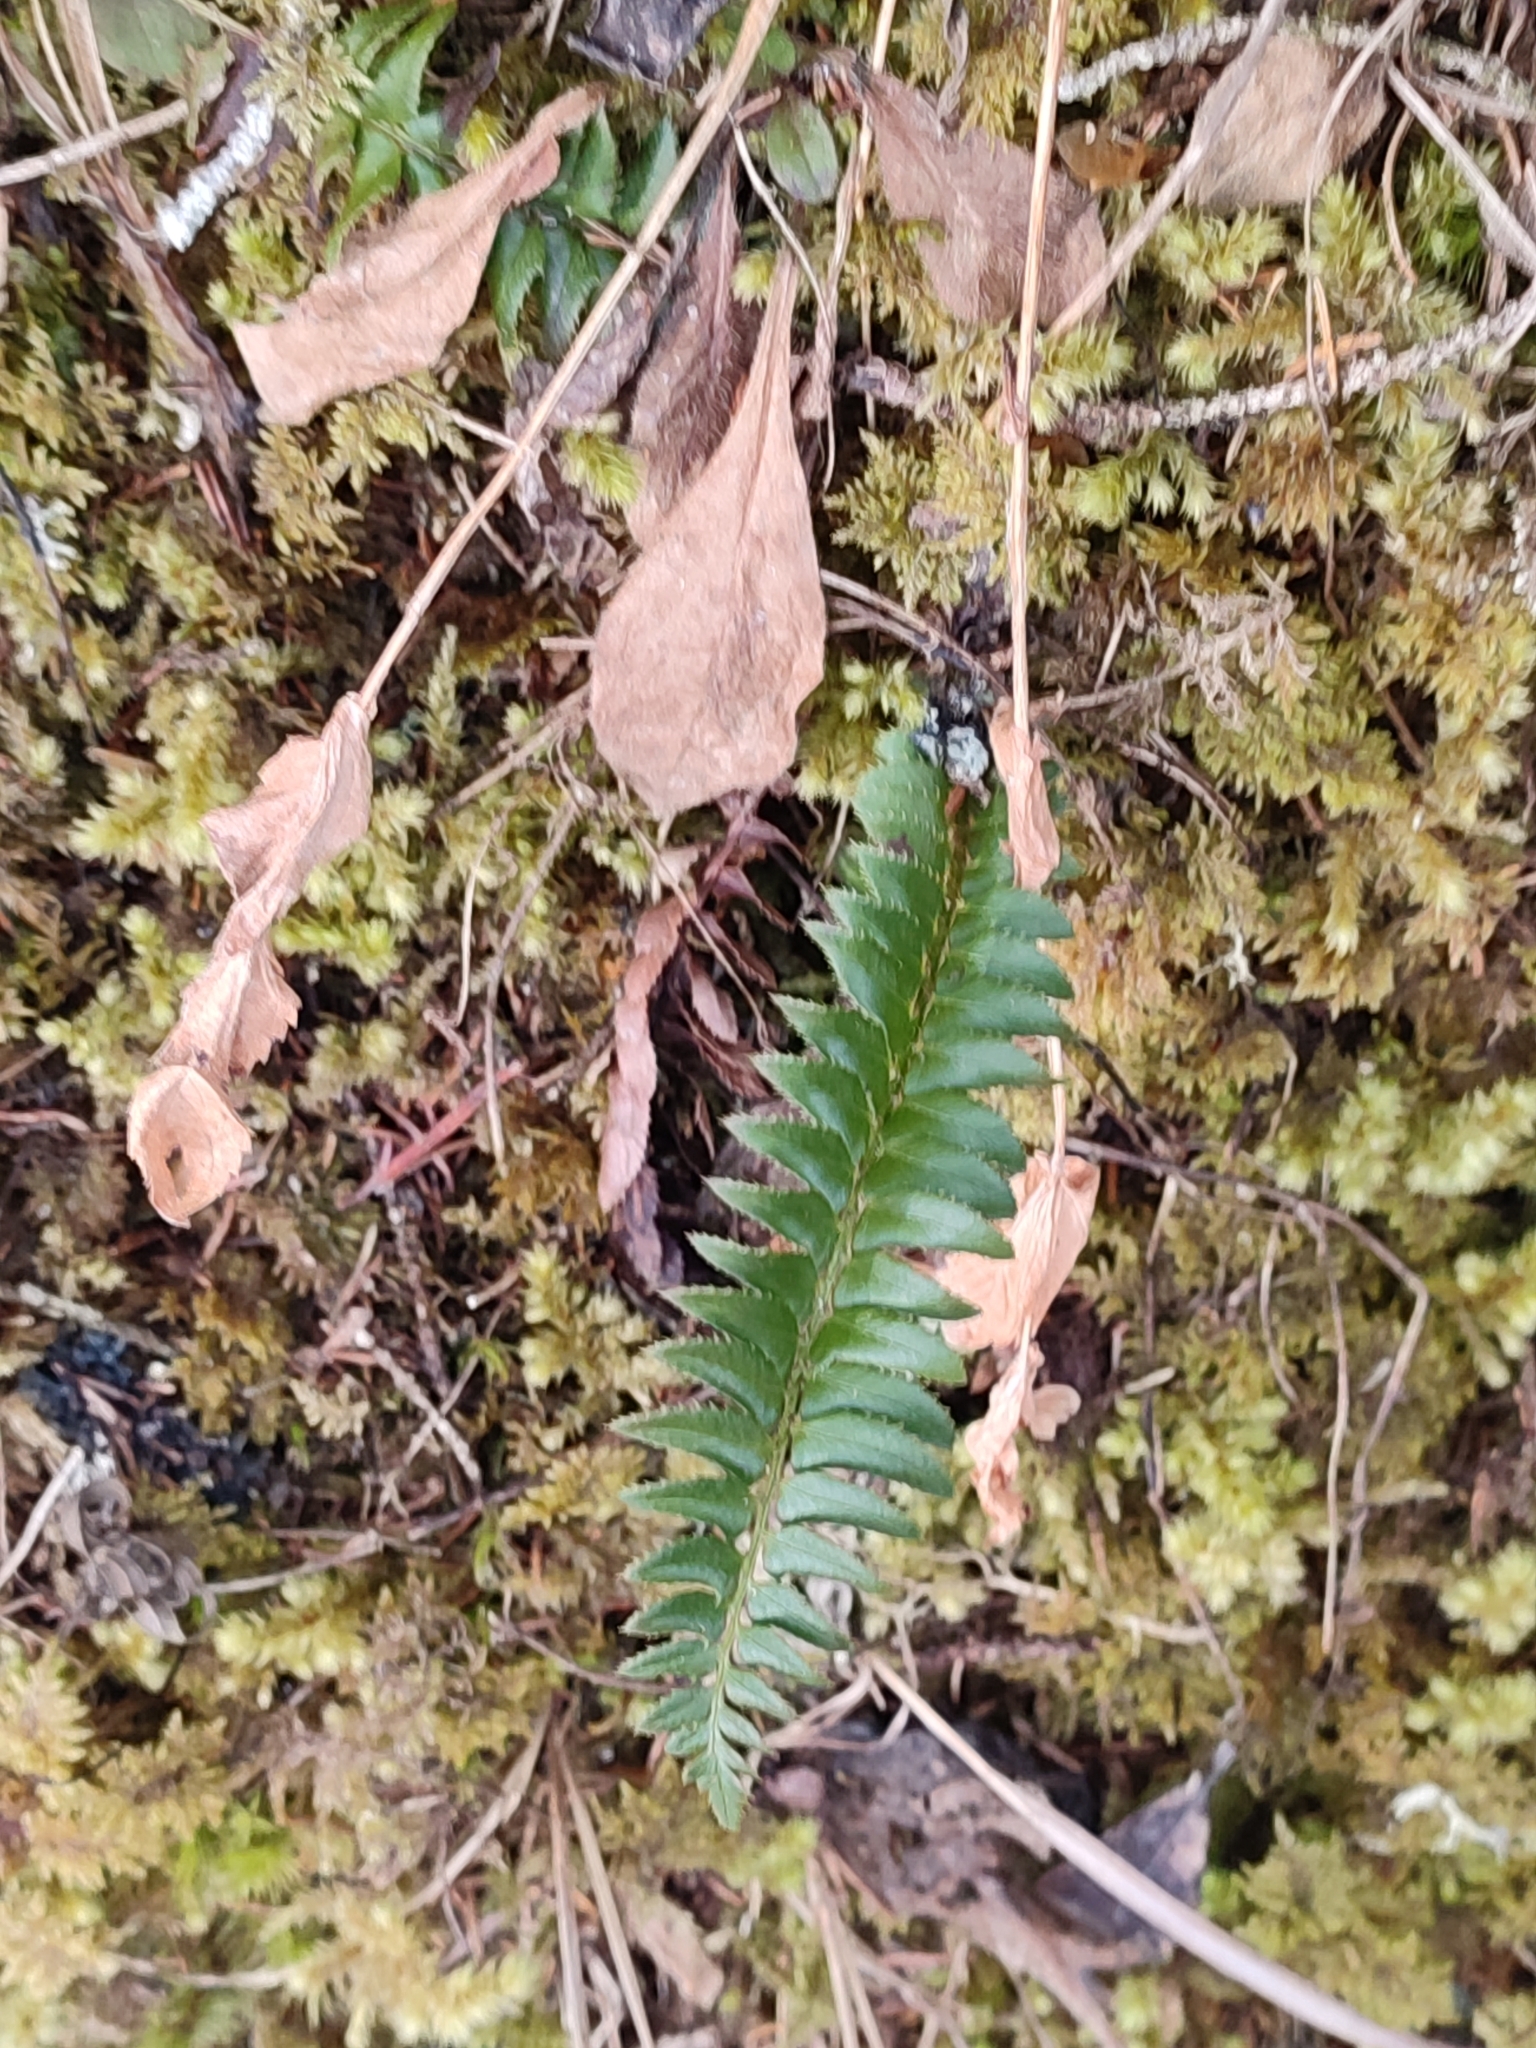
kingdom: Plantae
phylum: Tracheophyta
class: Polypodiopsida
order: Polypodiales
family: Dryopteridaceae
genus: Polystichum
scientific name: Polystichum lonchitis
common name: Holly fern
